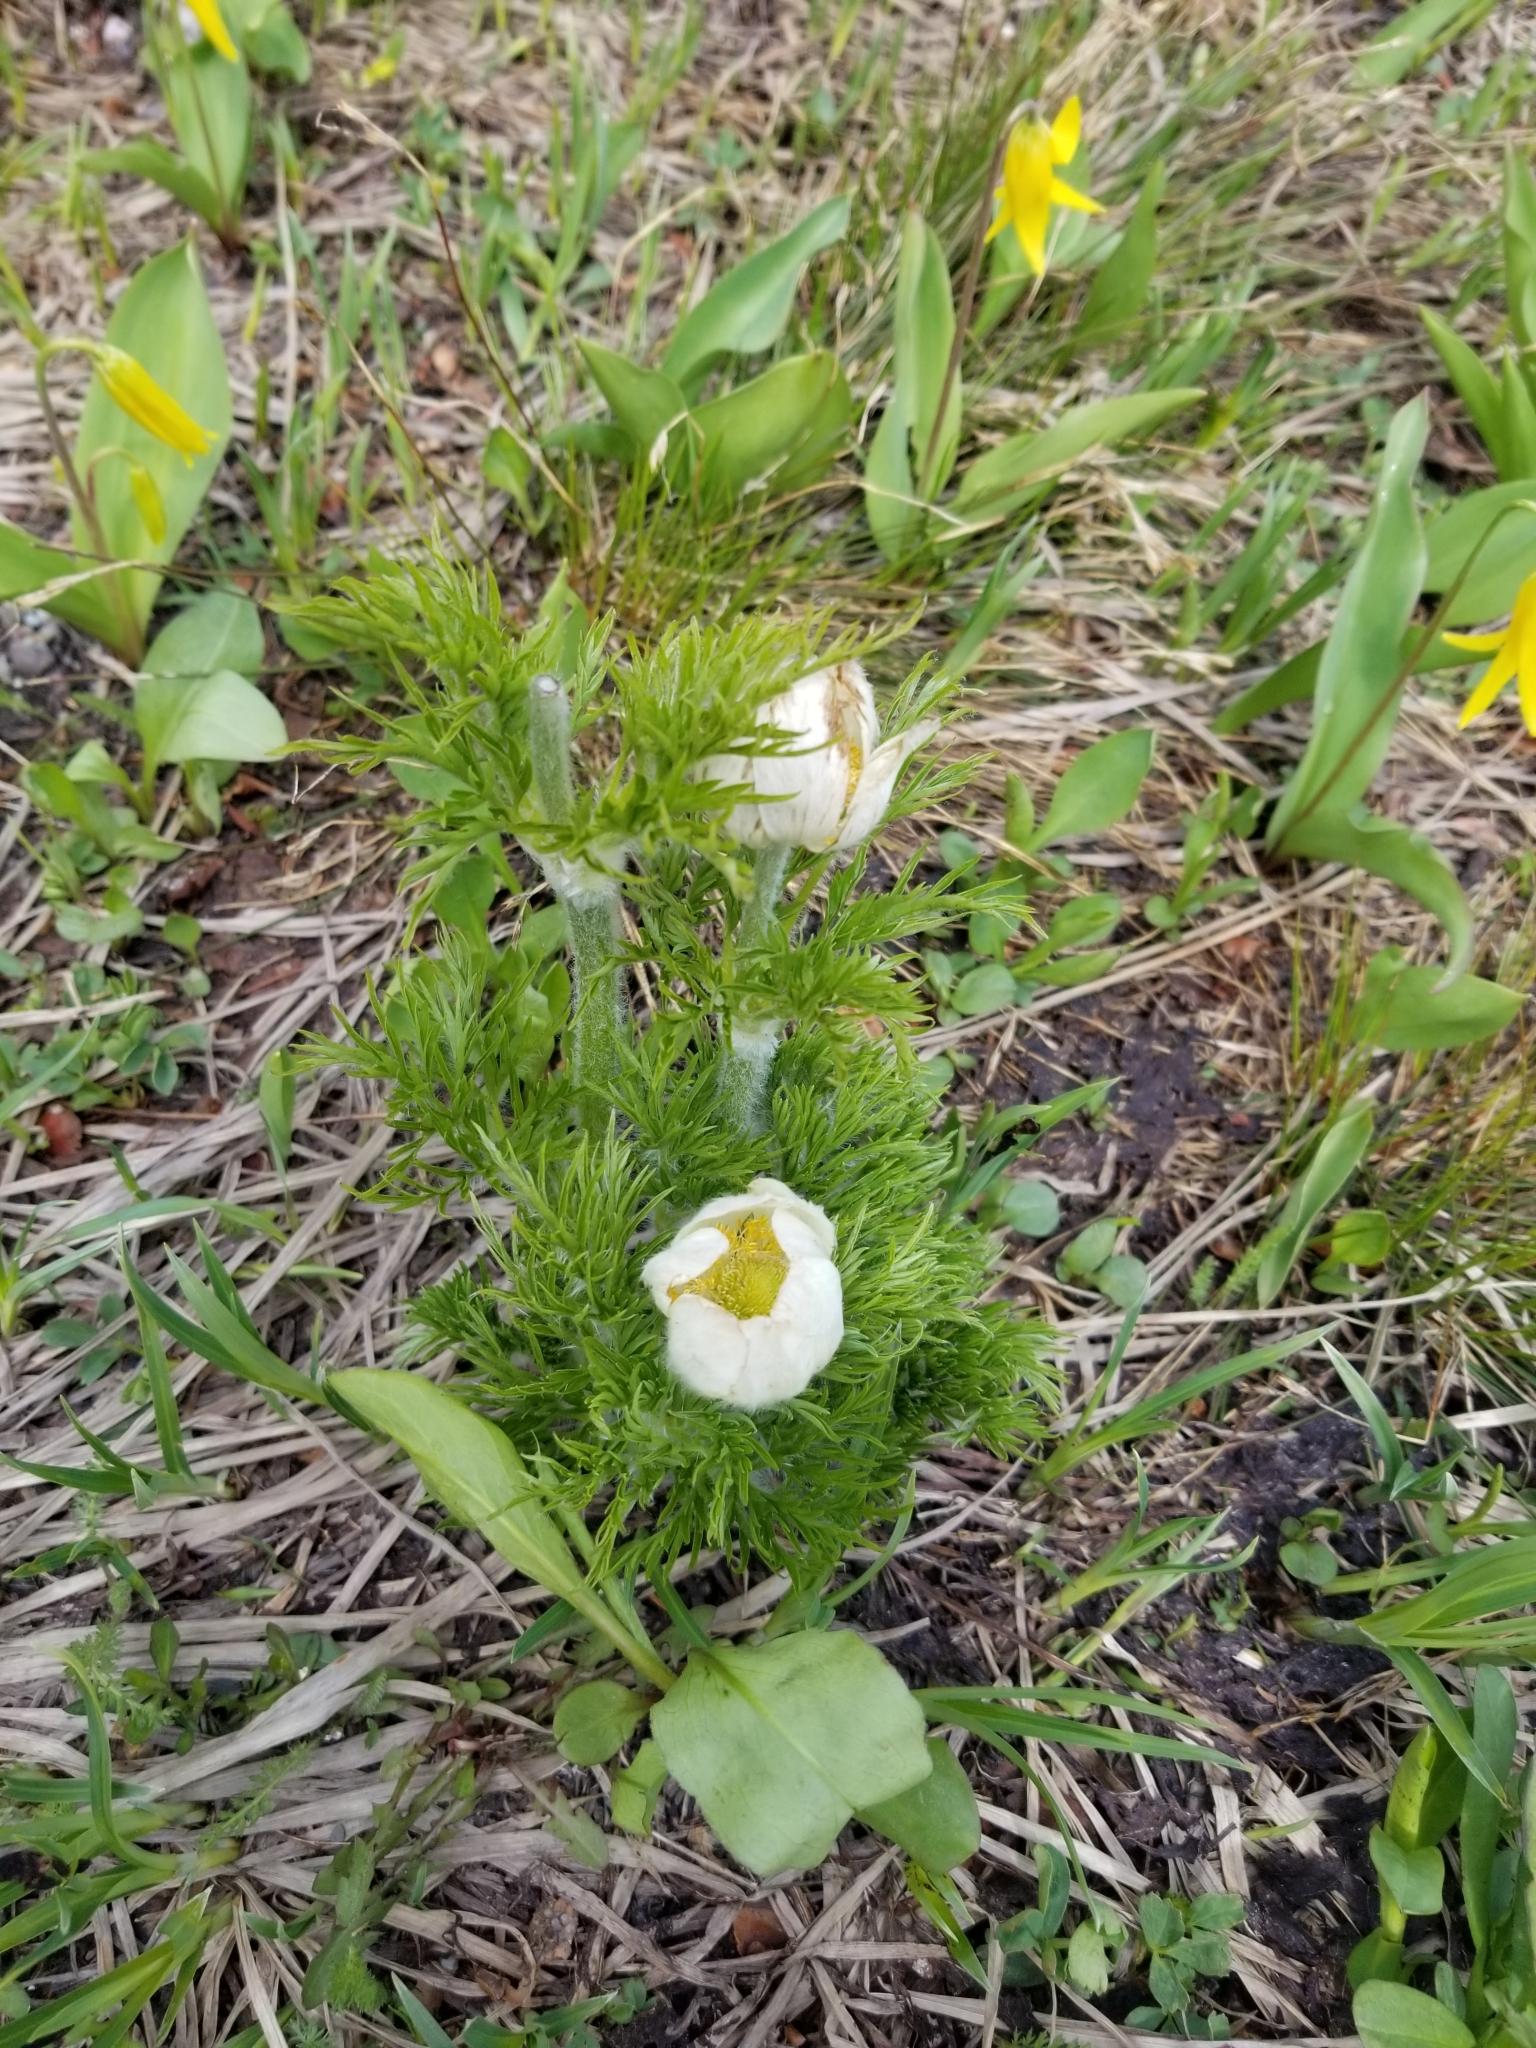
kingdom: Plantae
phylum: Tracheophyta
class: Magnoliopsida
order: Ranunculales
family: Ranunculaceae
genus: Pulsatilla
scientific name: Pulsatilla occidentalis
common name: Mountain pasqueflower
